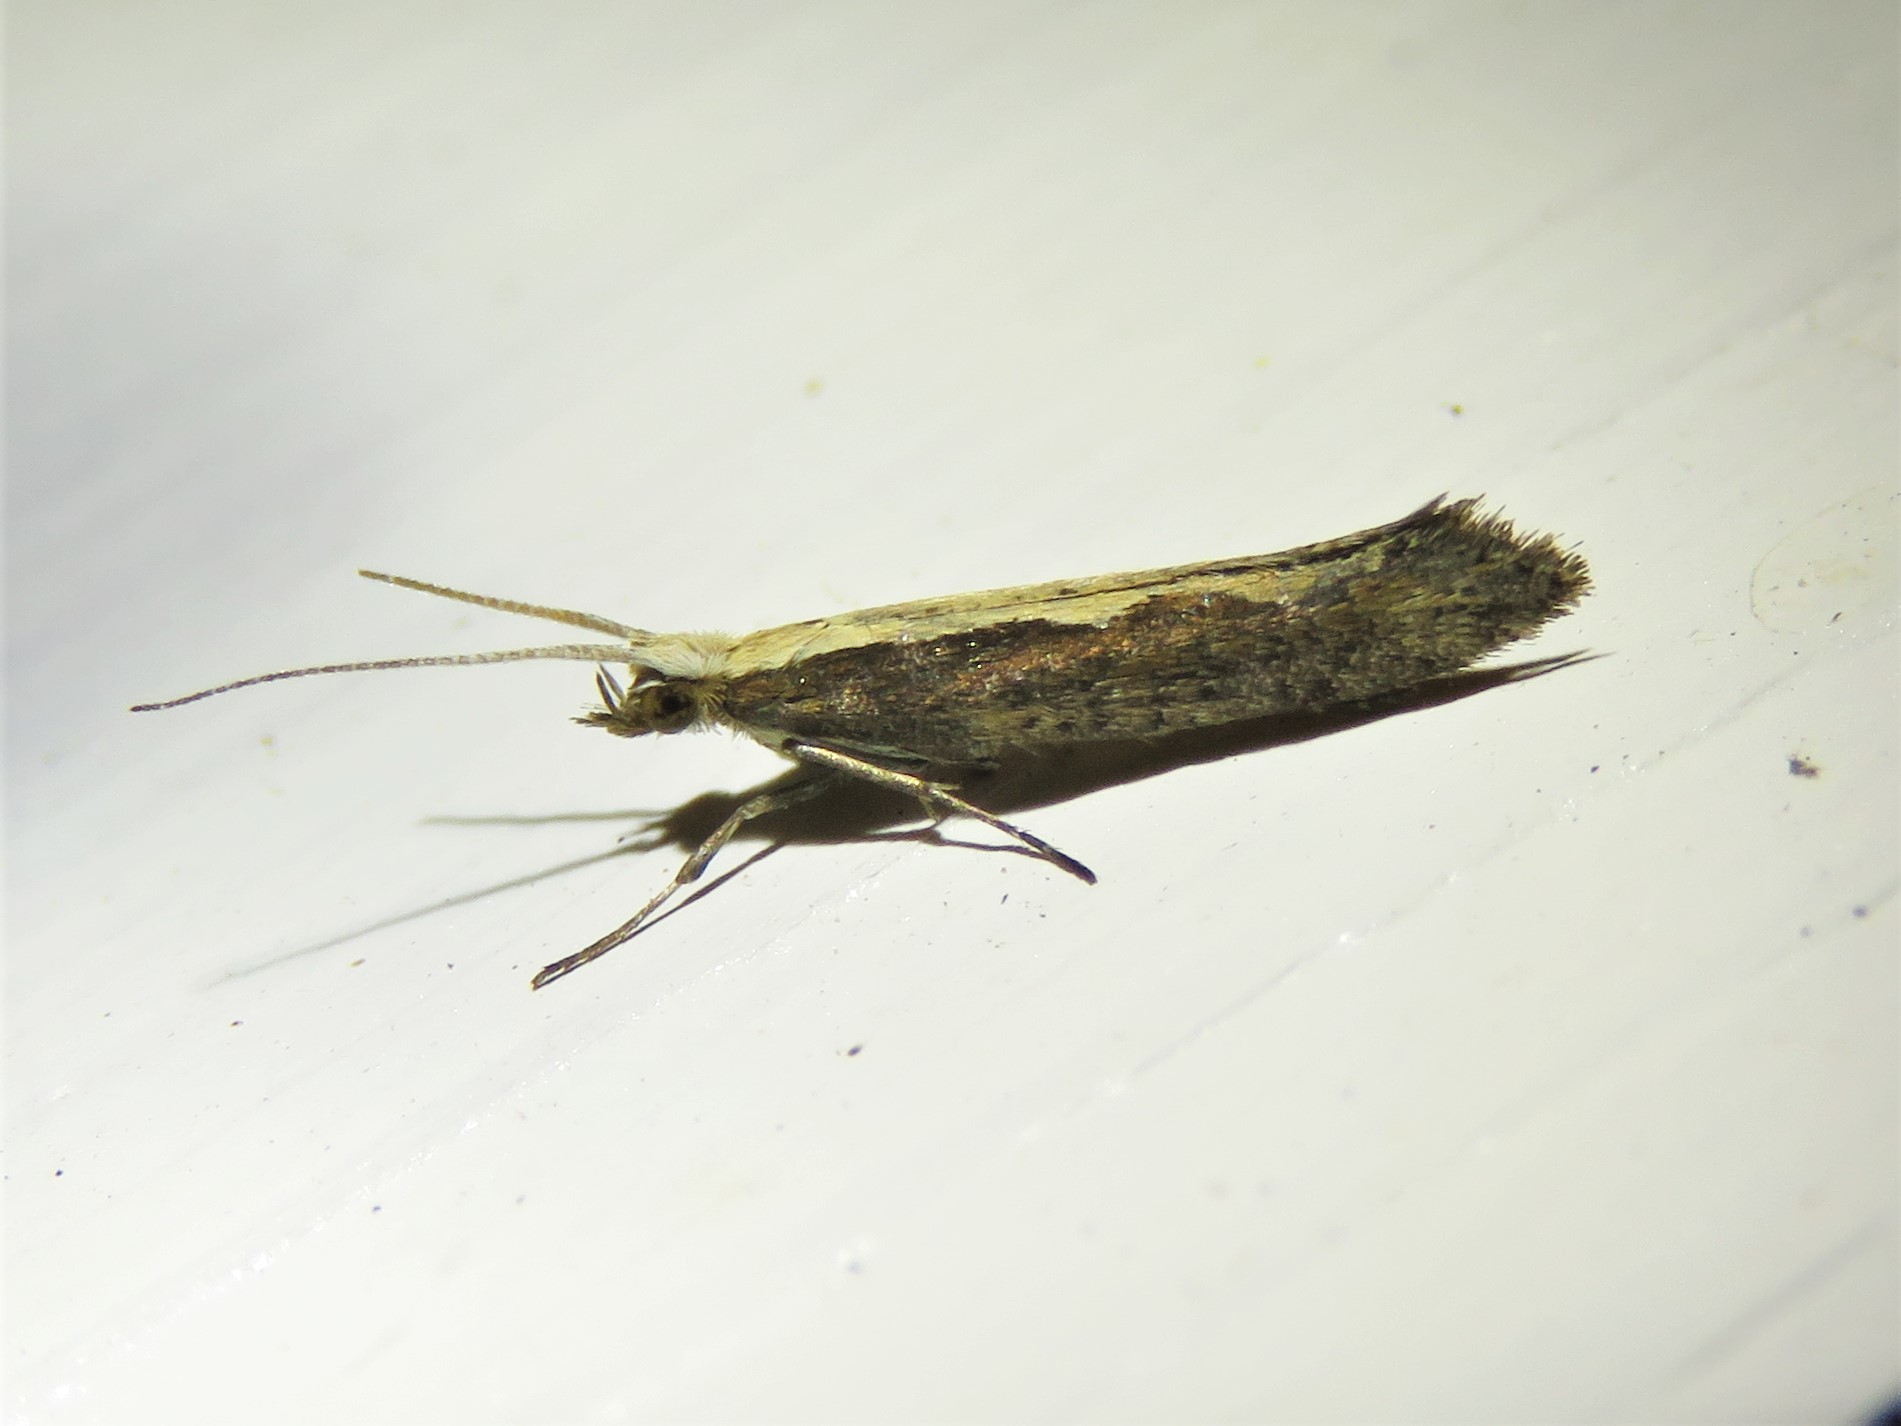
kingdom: Animalia
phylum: Arthropoda
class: Insecta
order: Lepidoptera
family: Plutellidae
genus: Plutella
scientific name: Plutella xylostella
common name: Diamond-back moth
